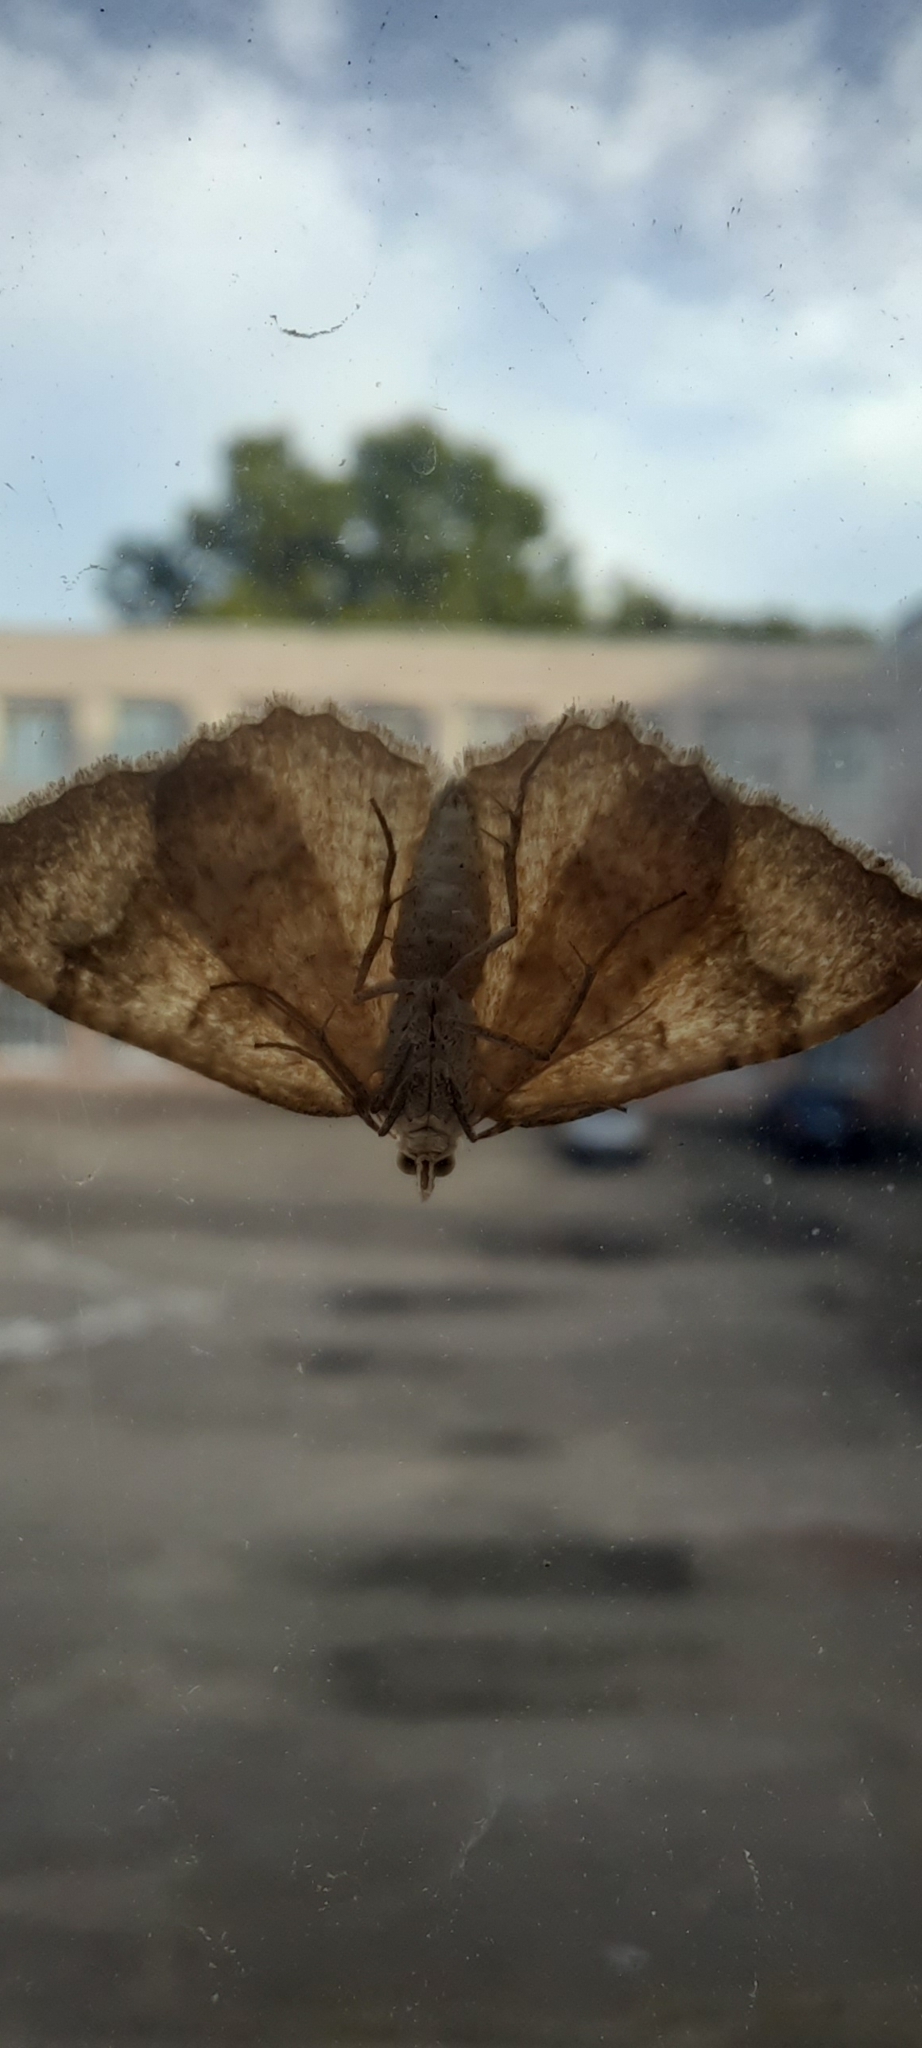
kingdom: Animalia
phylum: Arthropoda
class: Insecta
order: Lepidoptera
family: Geometridae
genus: Camptogramma
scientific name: Camptogramma bilineata
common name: Yellow shell
